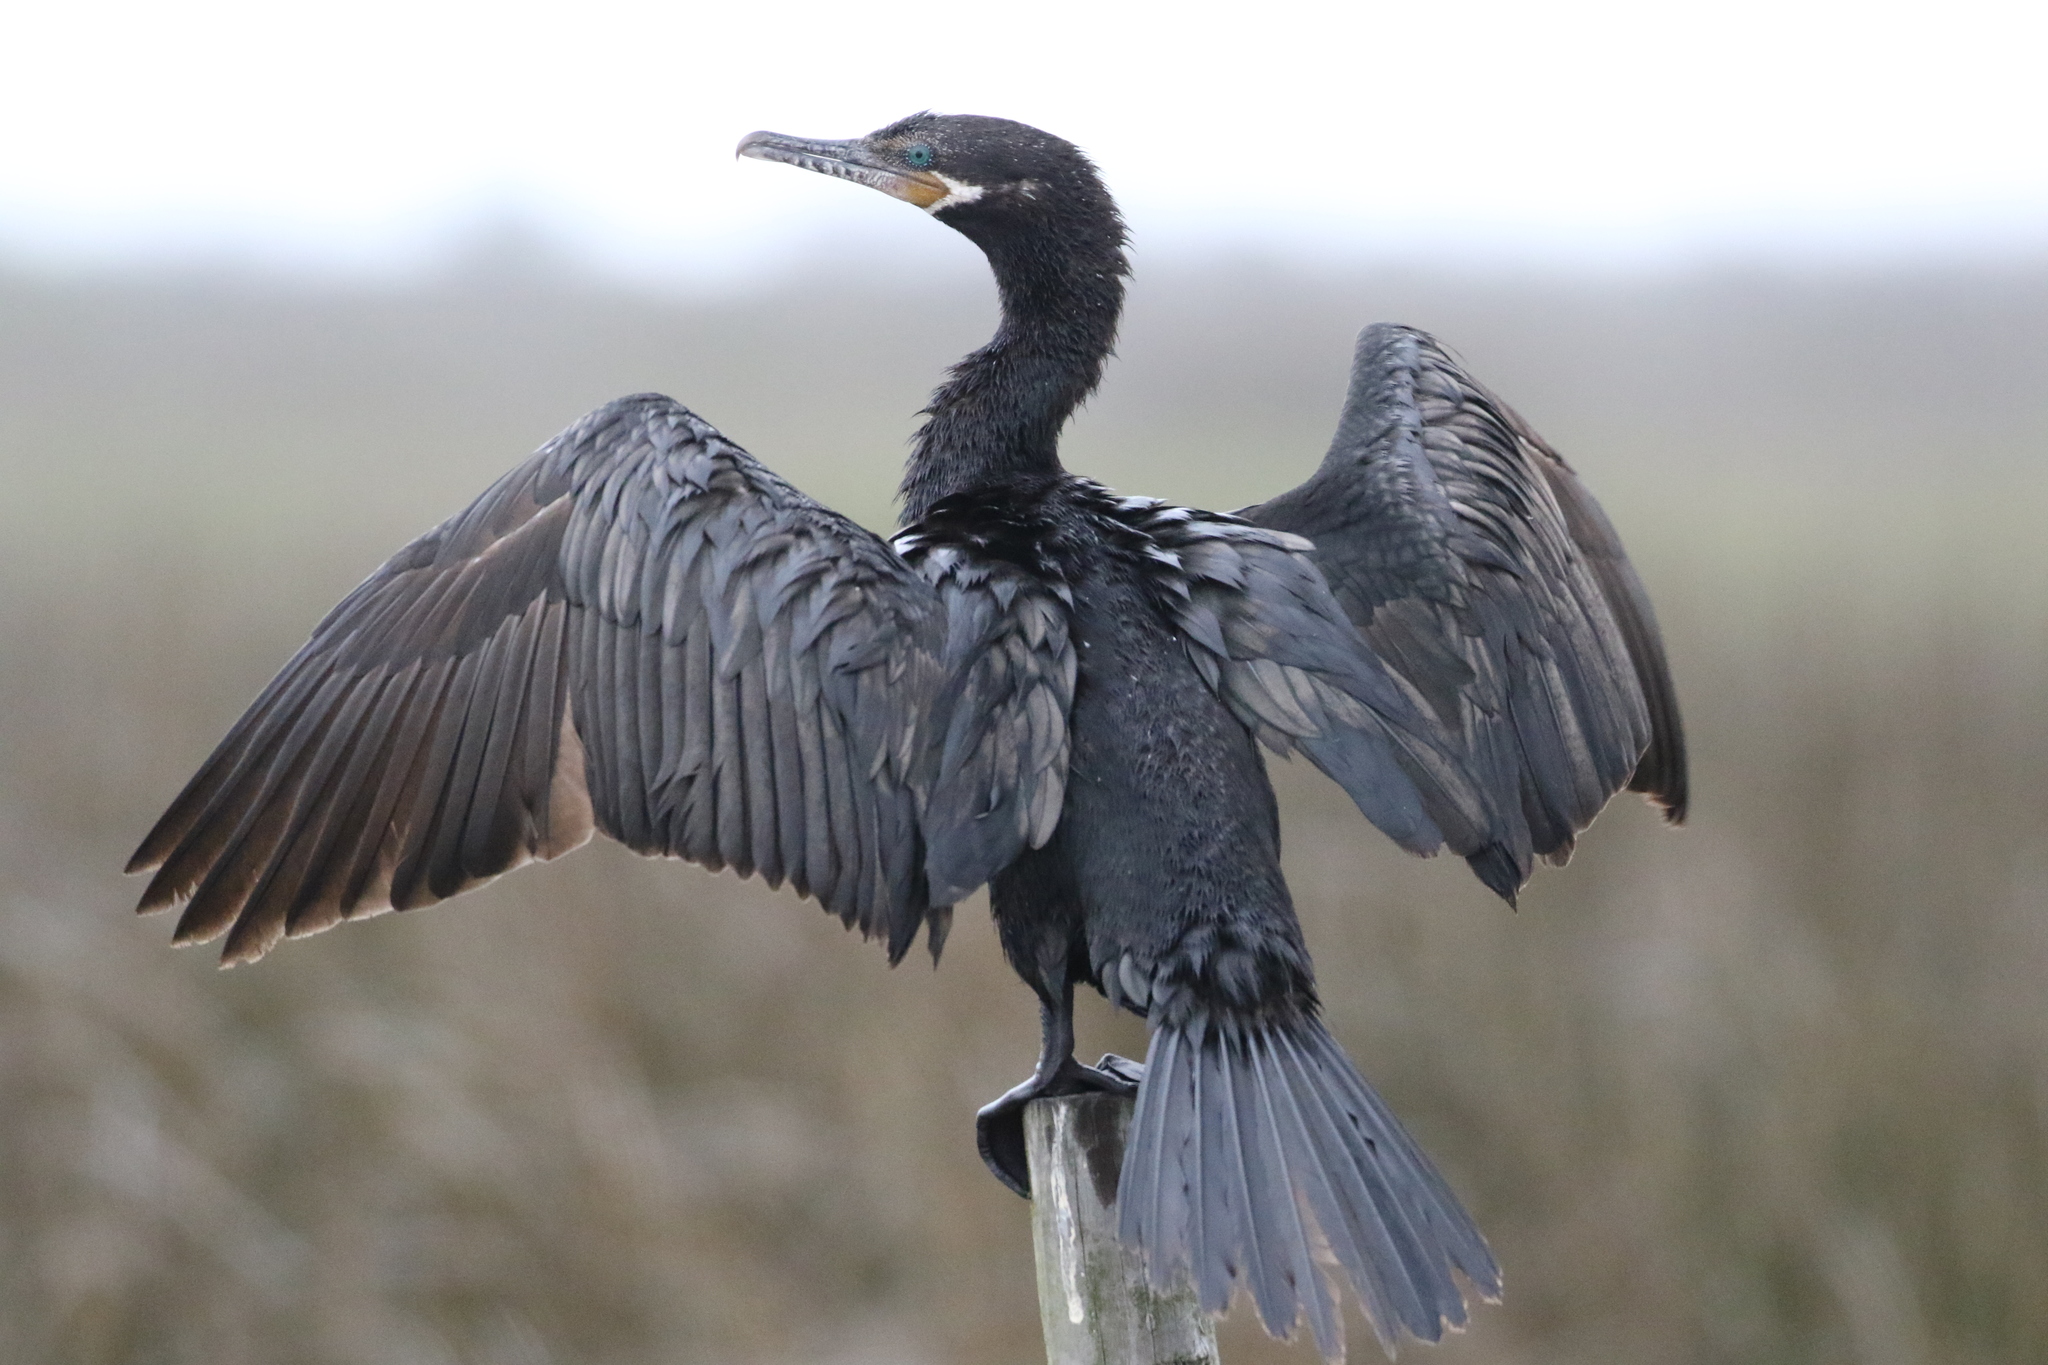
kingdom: Animalia
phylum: Chordata
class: Aves
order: Suliformes
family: Phalacrocoracidae
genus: Phalacrocorax
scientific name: Phalacrocorax brasilianus
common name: Neotropic cormorant
